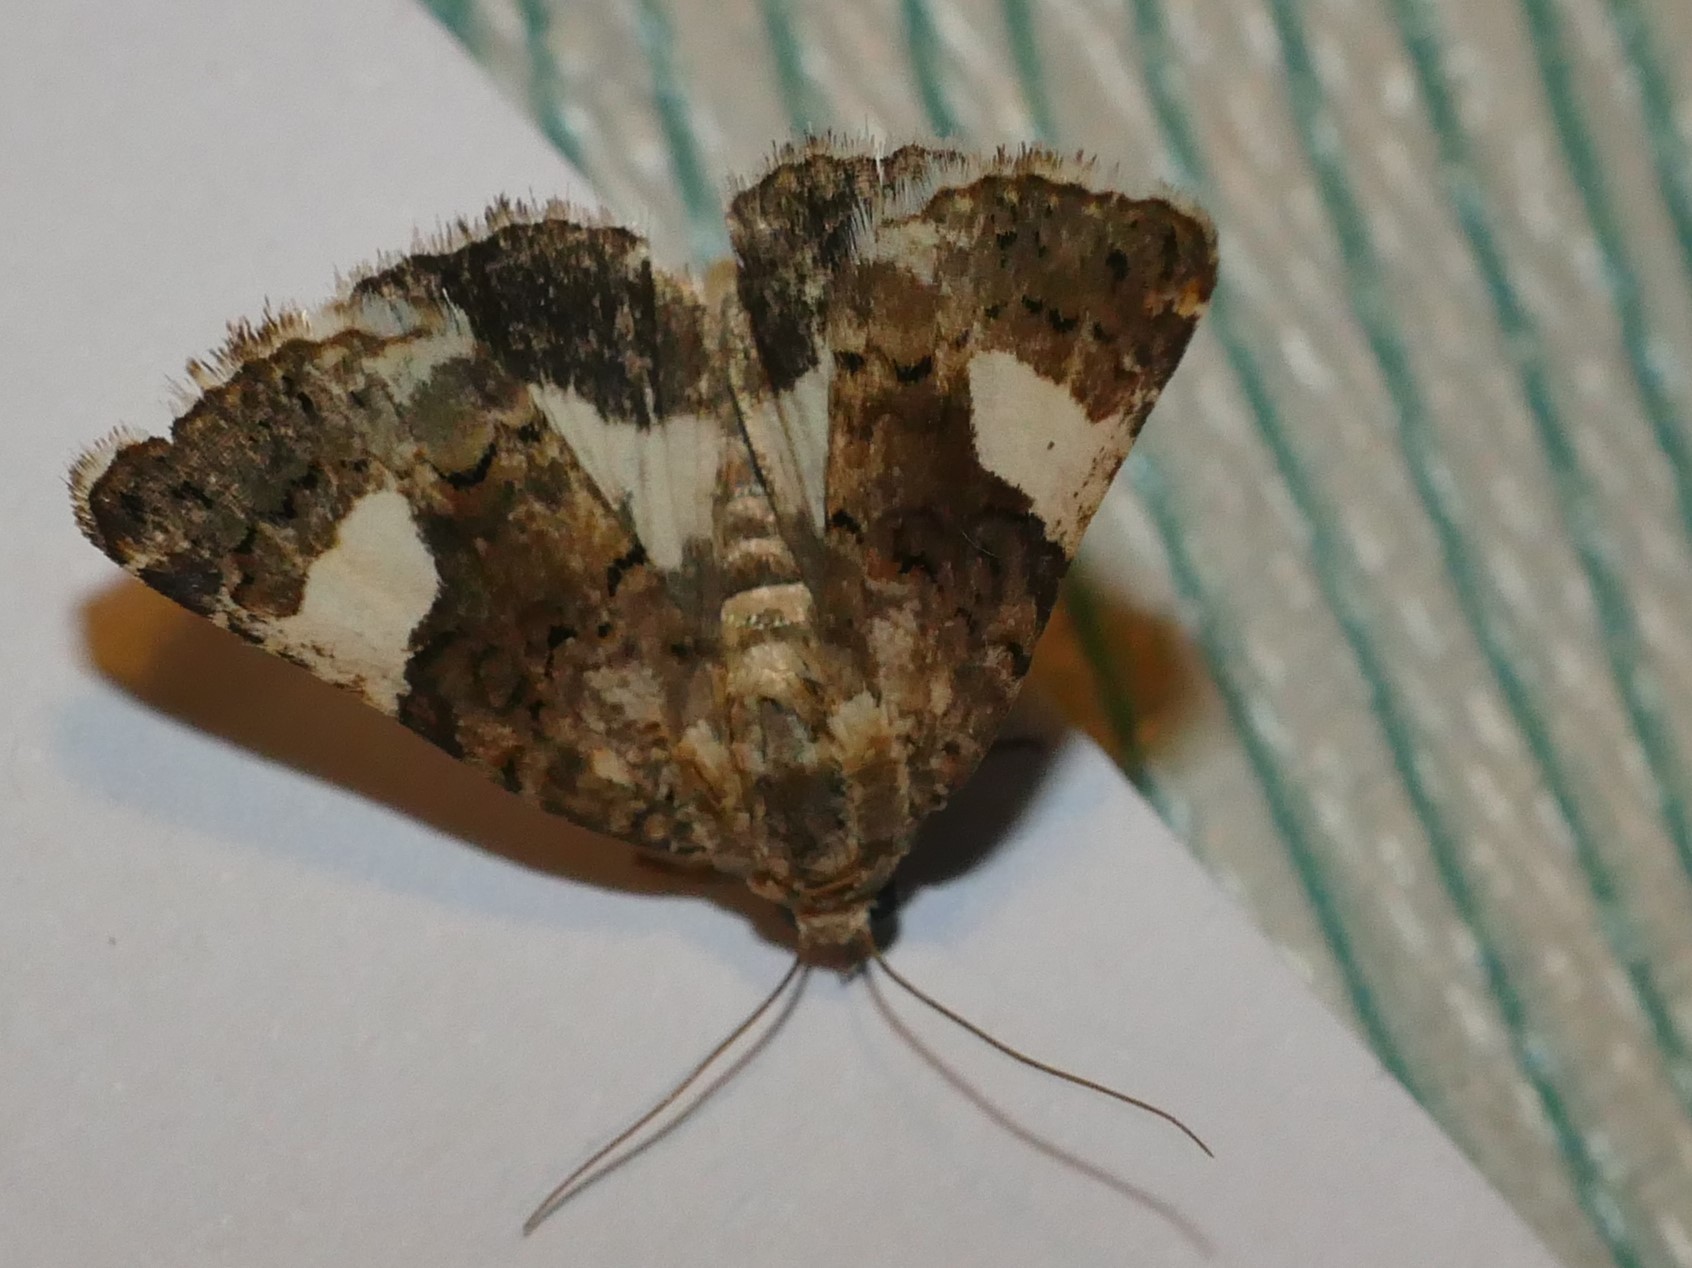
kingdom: Animalia
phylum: Arthropoda
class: Insecta
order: Lepidoptera
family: Erebidae
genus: Tyta
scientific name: Tyta luctuosa
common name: Four-spotted
